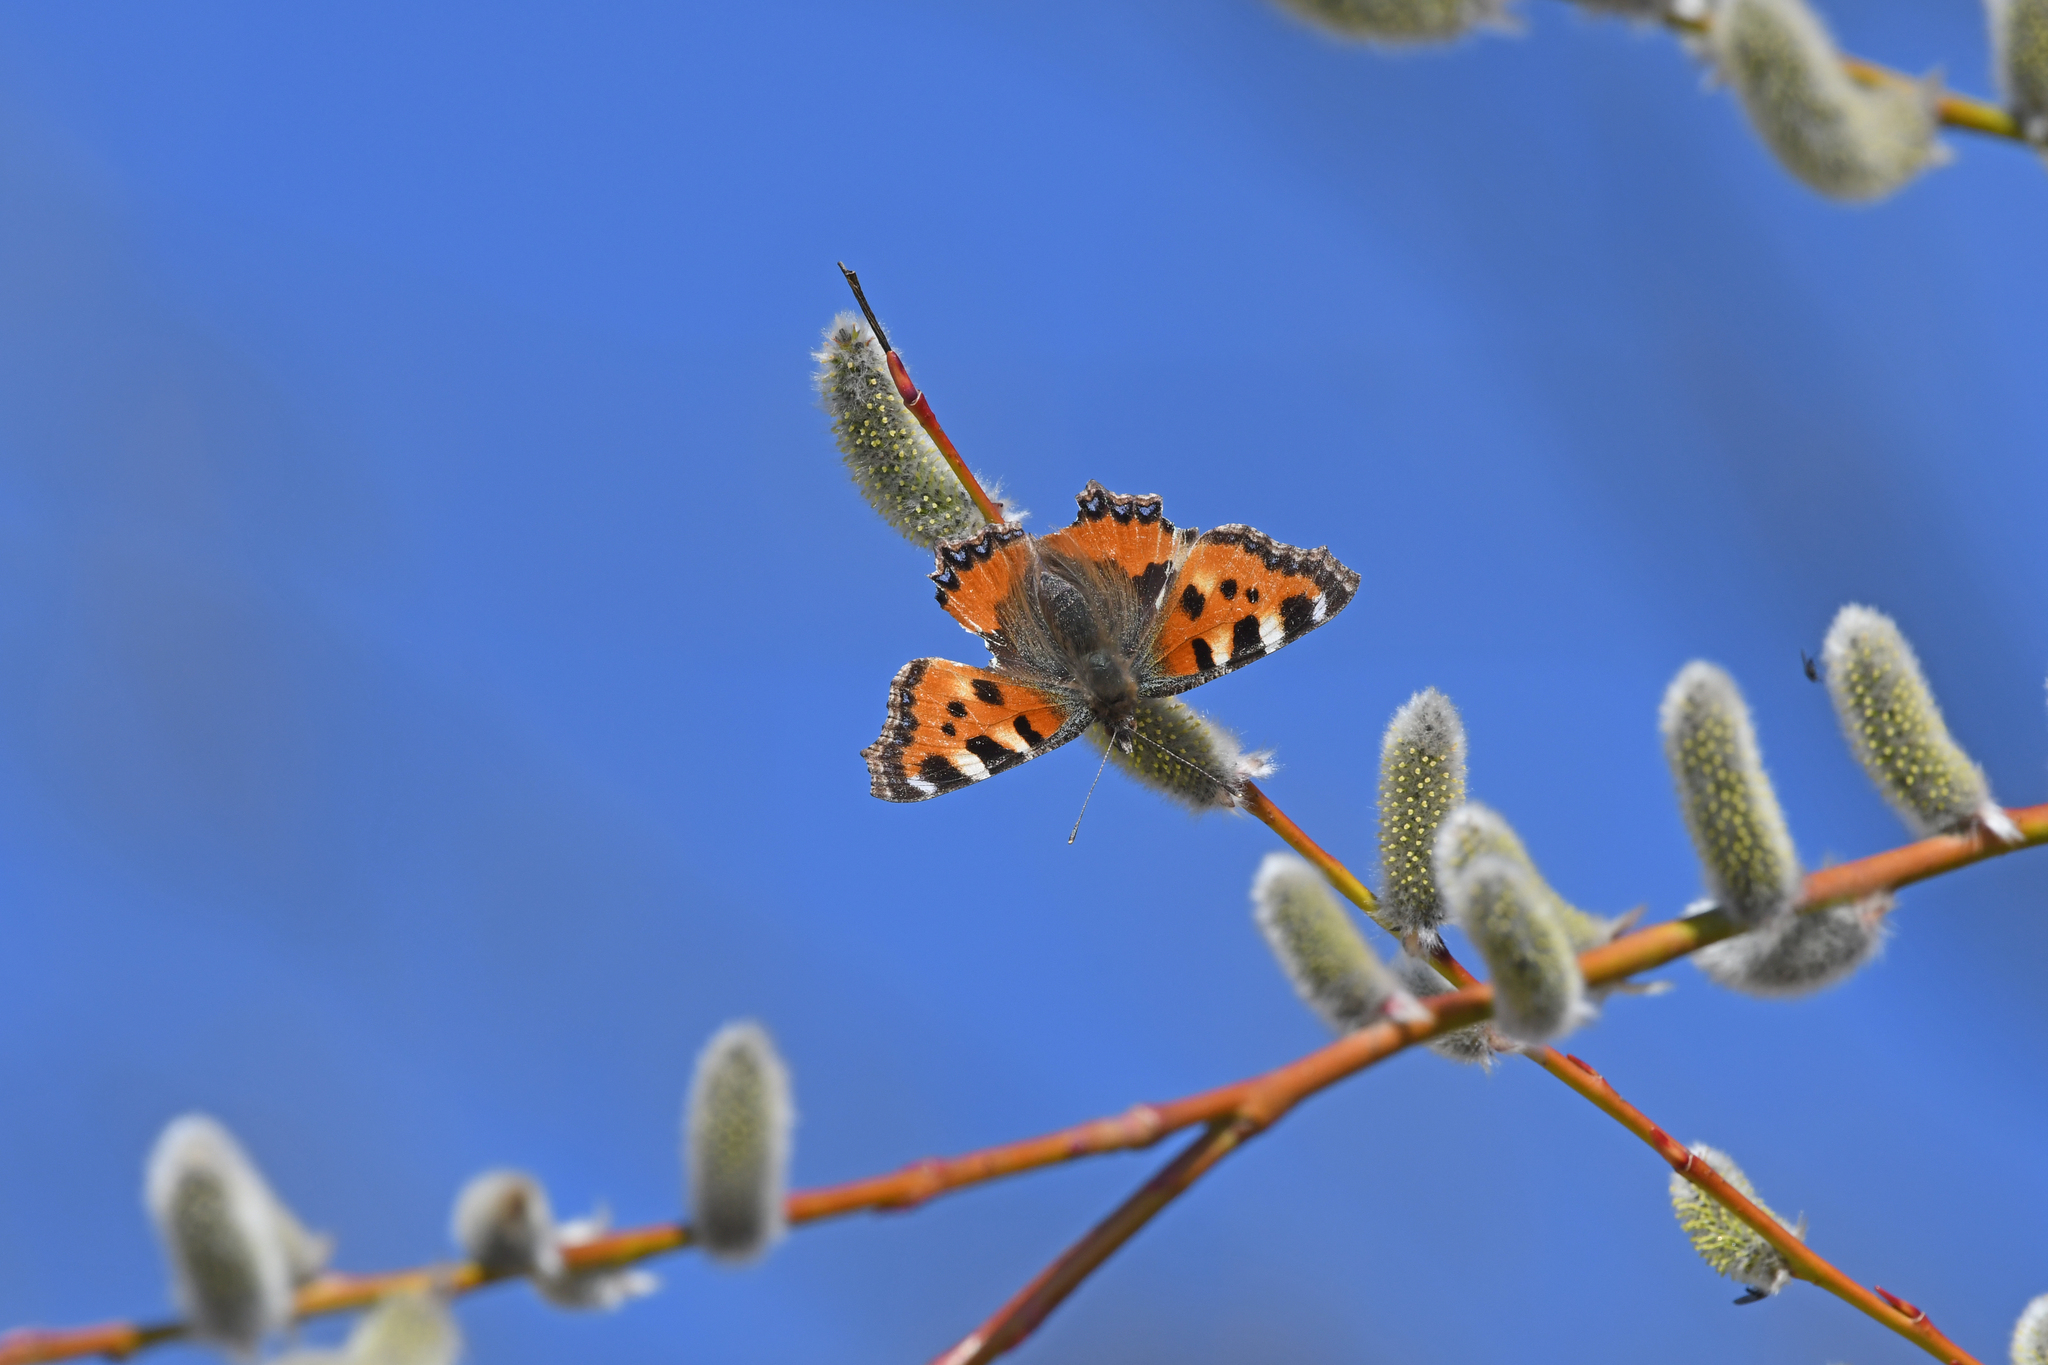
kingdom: Animalia
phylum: Arthropoda
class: Insecta
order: Lepidoptera
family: Nymphalidae
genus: Aglais
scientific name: Aglais urticae
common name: Small tortoiseshell
